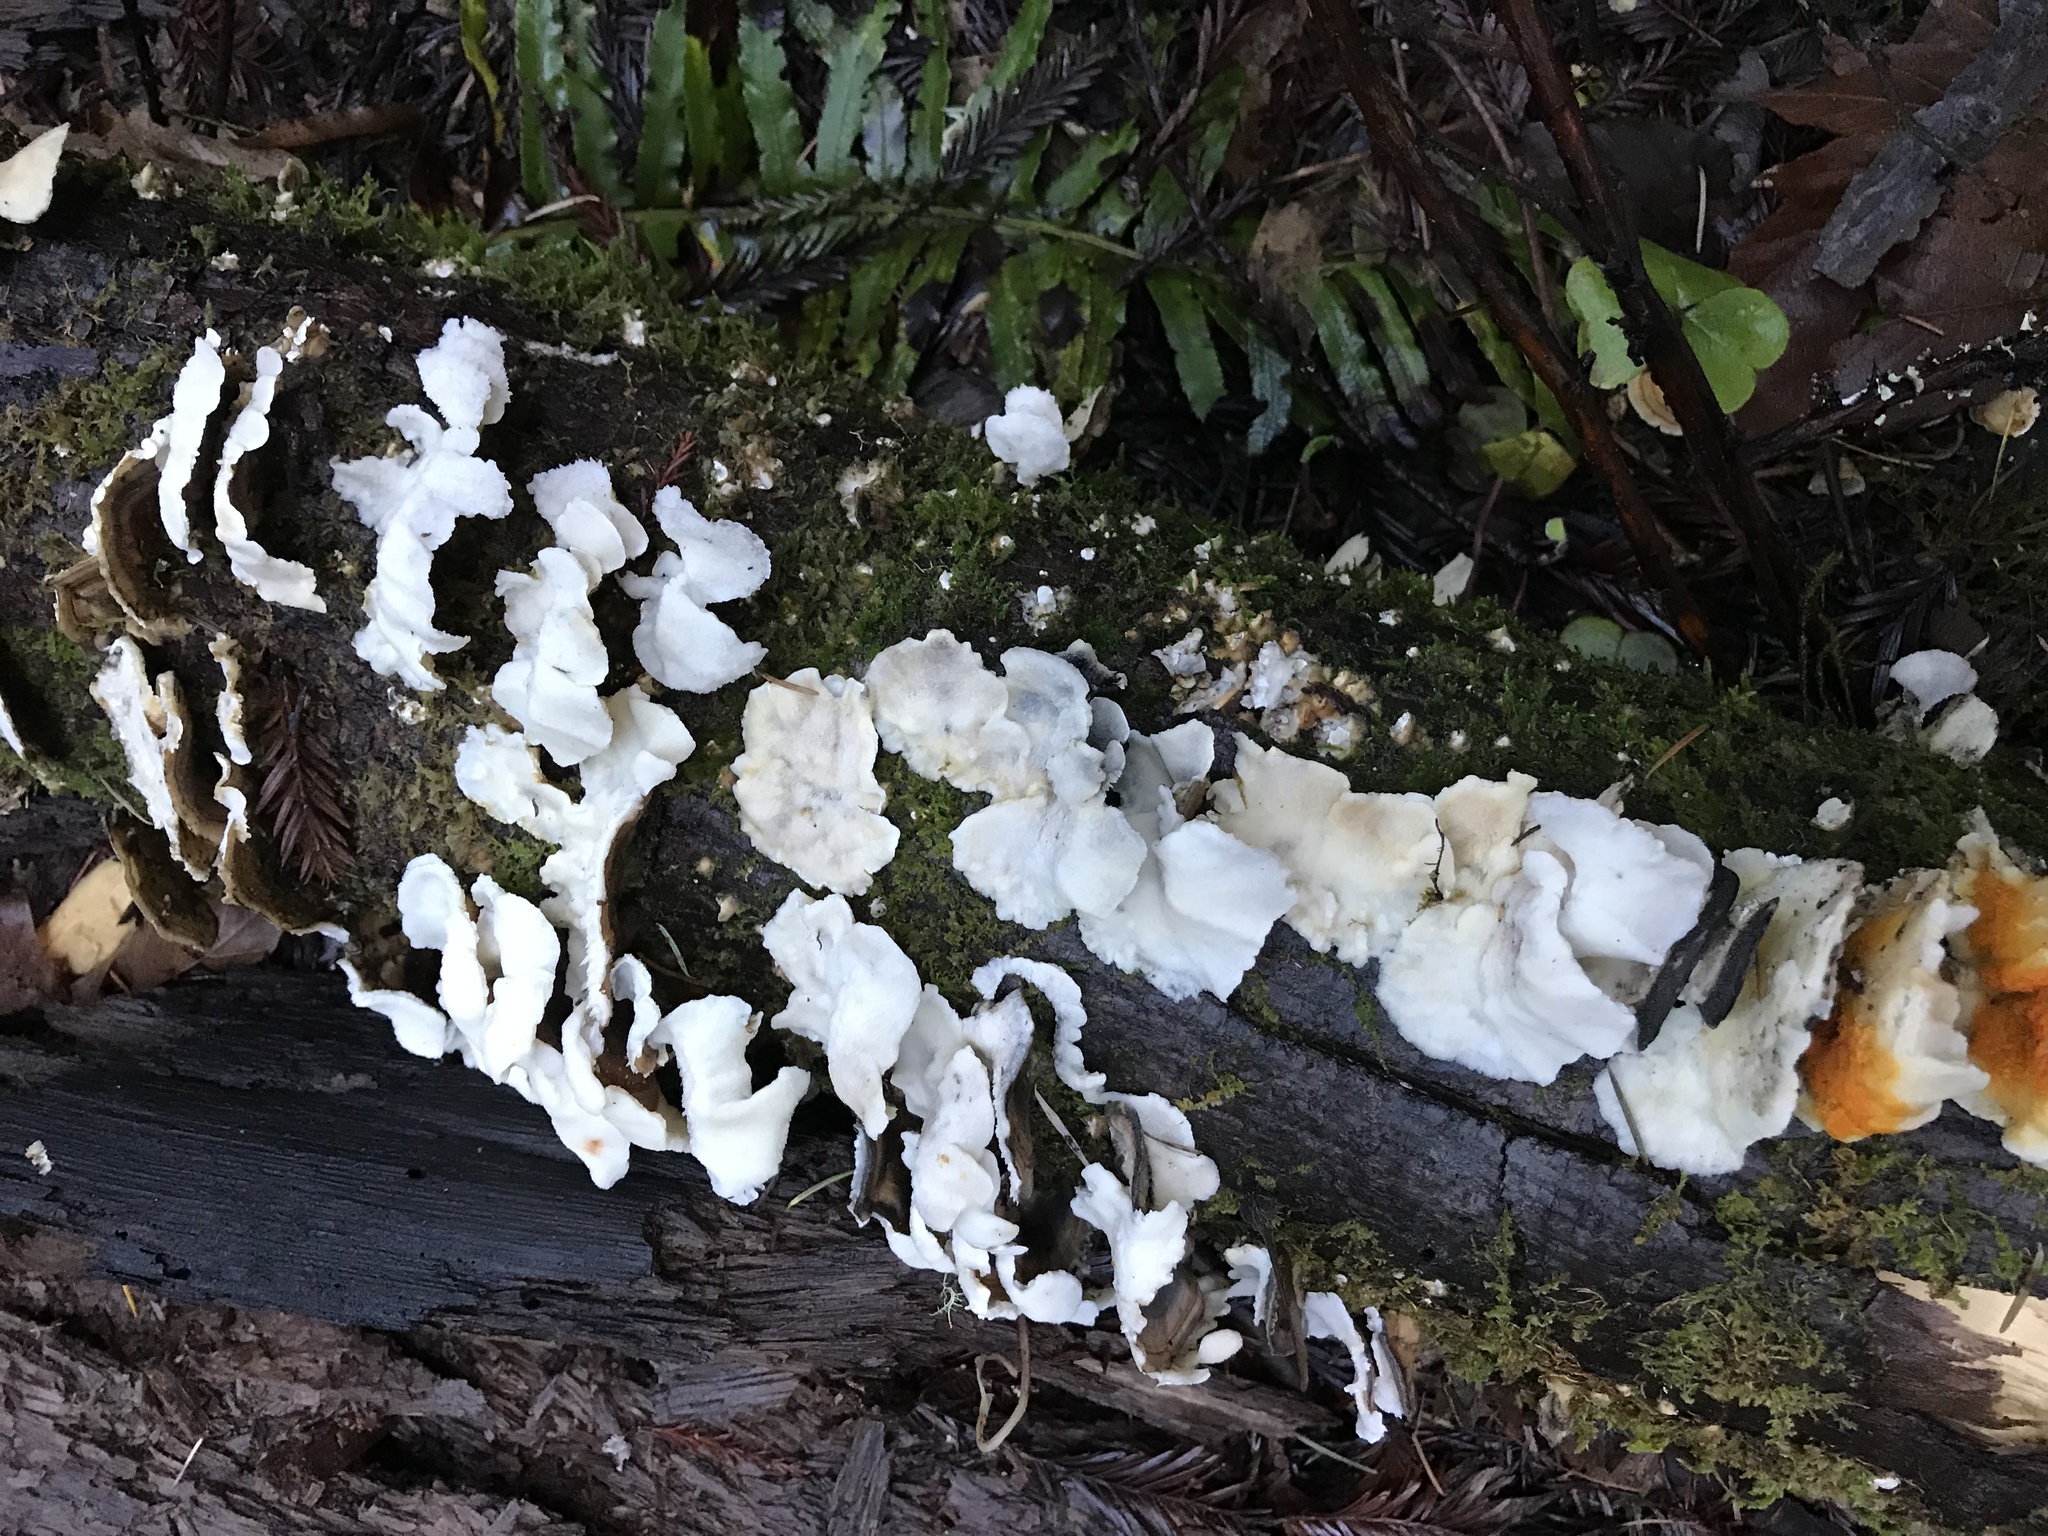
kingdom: Fungi
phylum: Basidiomycota
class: Agaricomycetes
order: Polyporales
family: Polyporaceae
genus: Trametes
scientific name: Trametes versicolor
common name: Turkeytail
